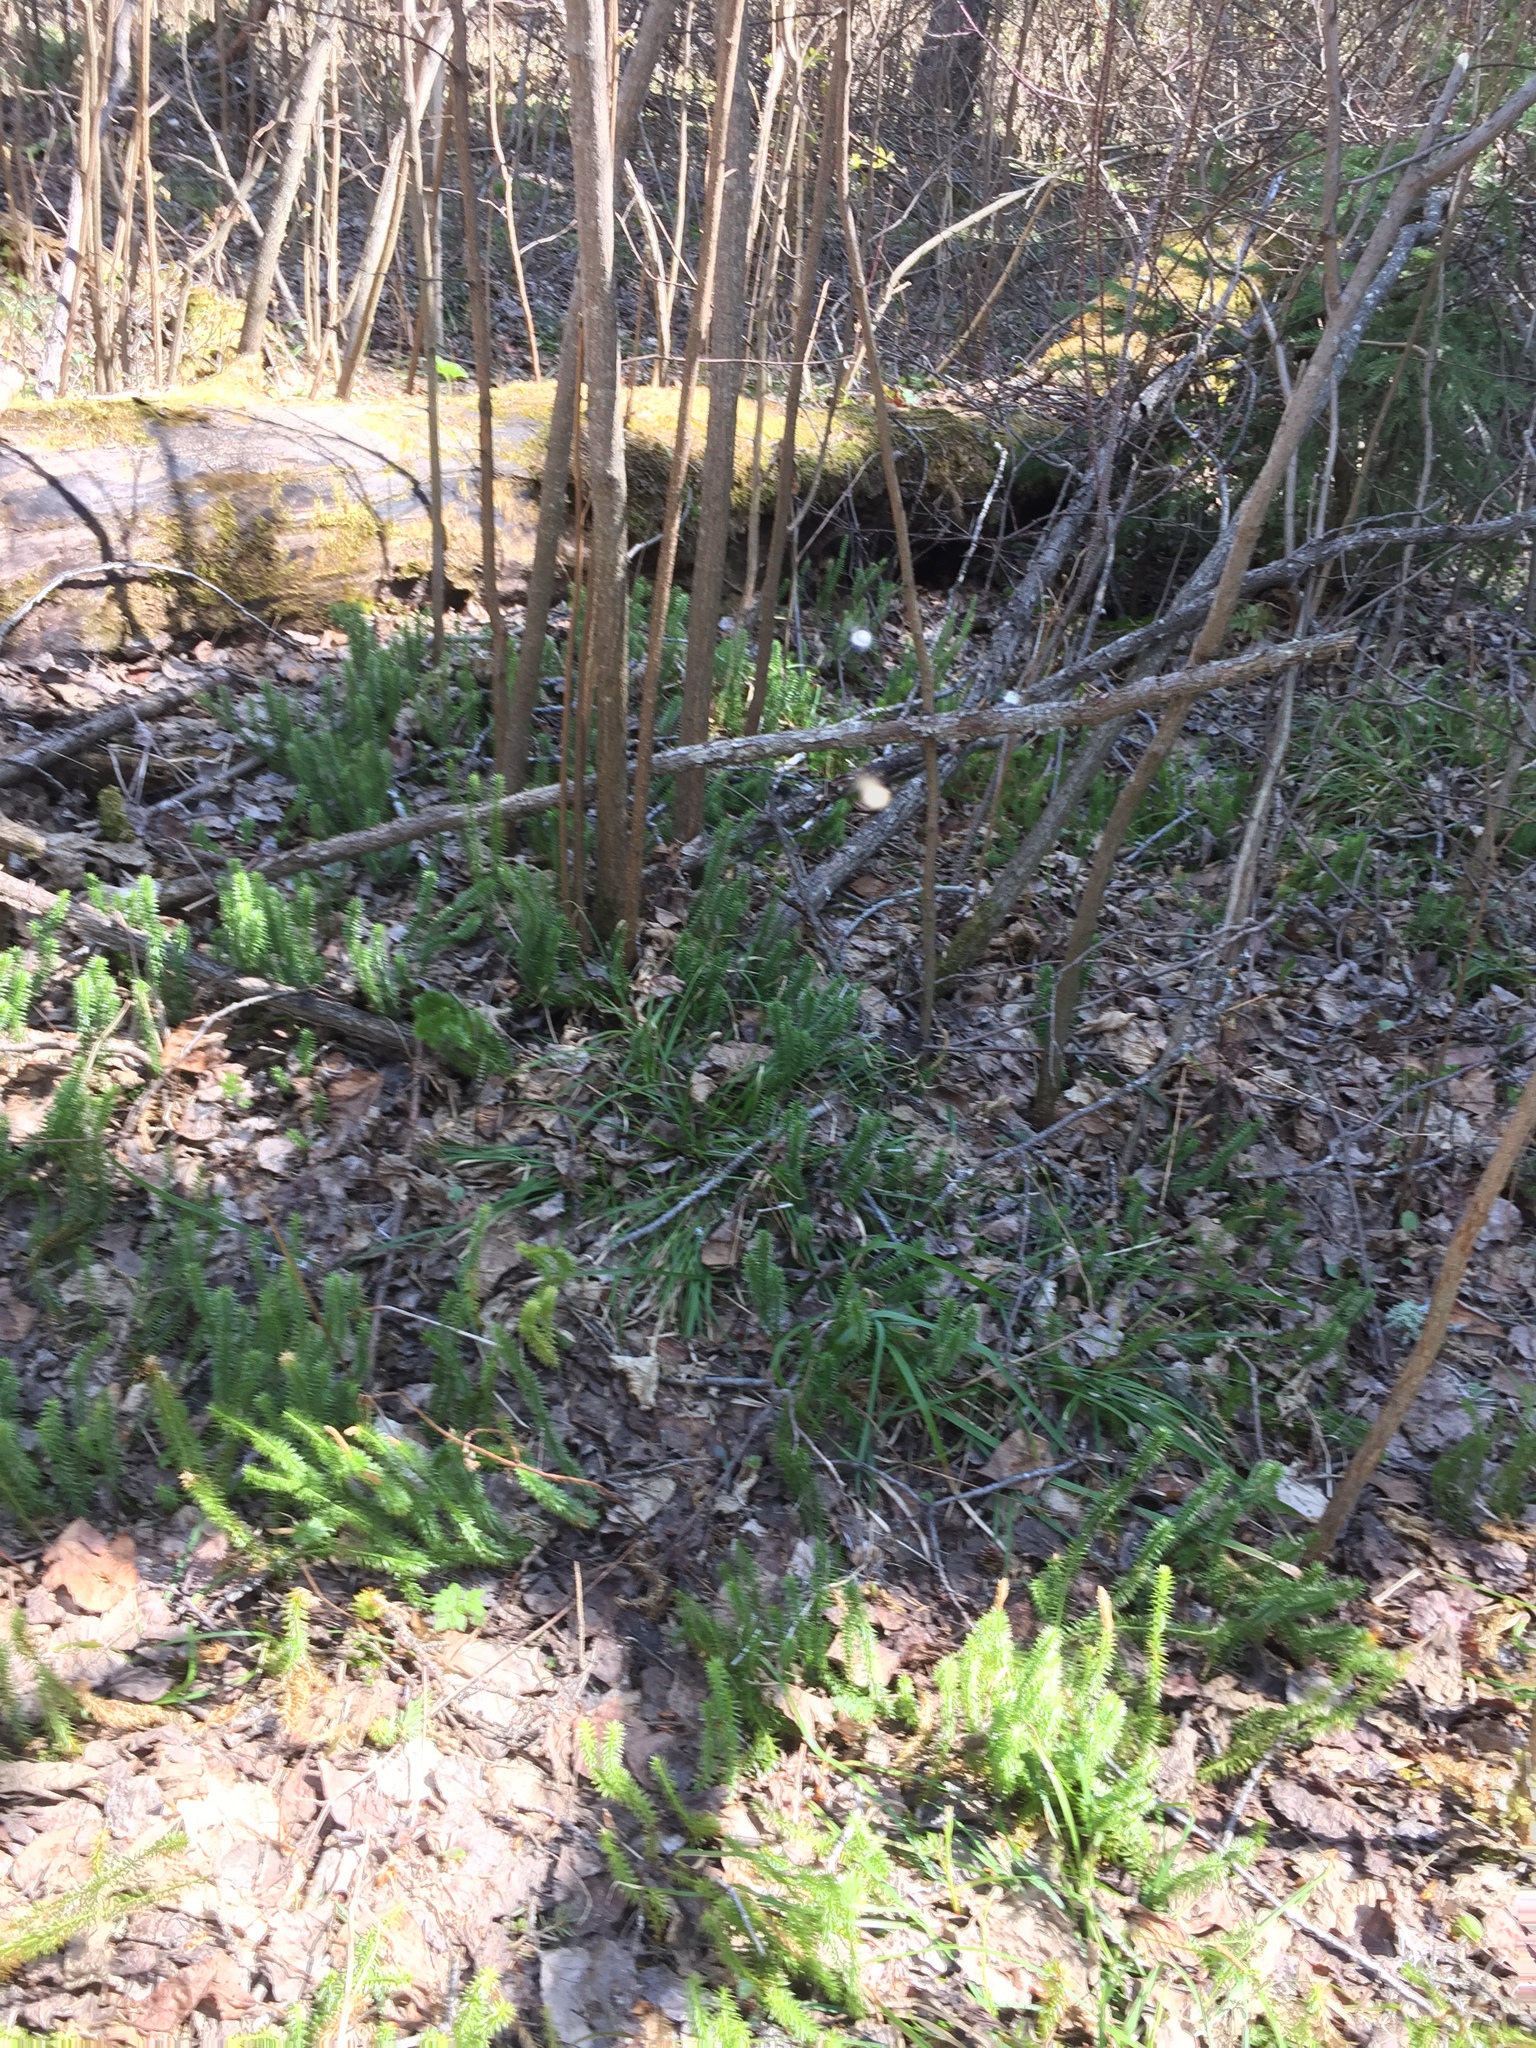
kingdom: Plantae
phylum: Tracheophyta
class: Lycopodiopsida
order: Lycopodiales
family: Lycopodiaceae
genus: Spinulum
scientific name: Spinulum annotinum
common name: Interrupted club-moss
